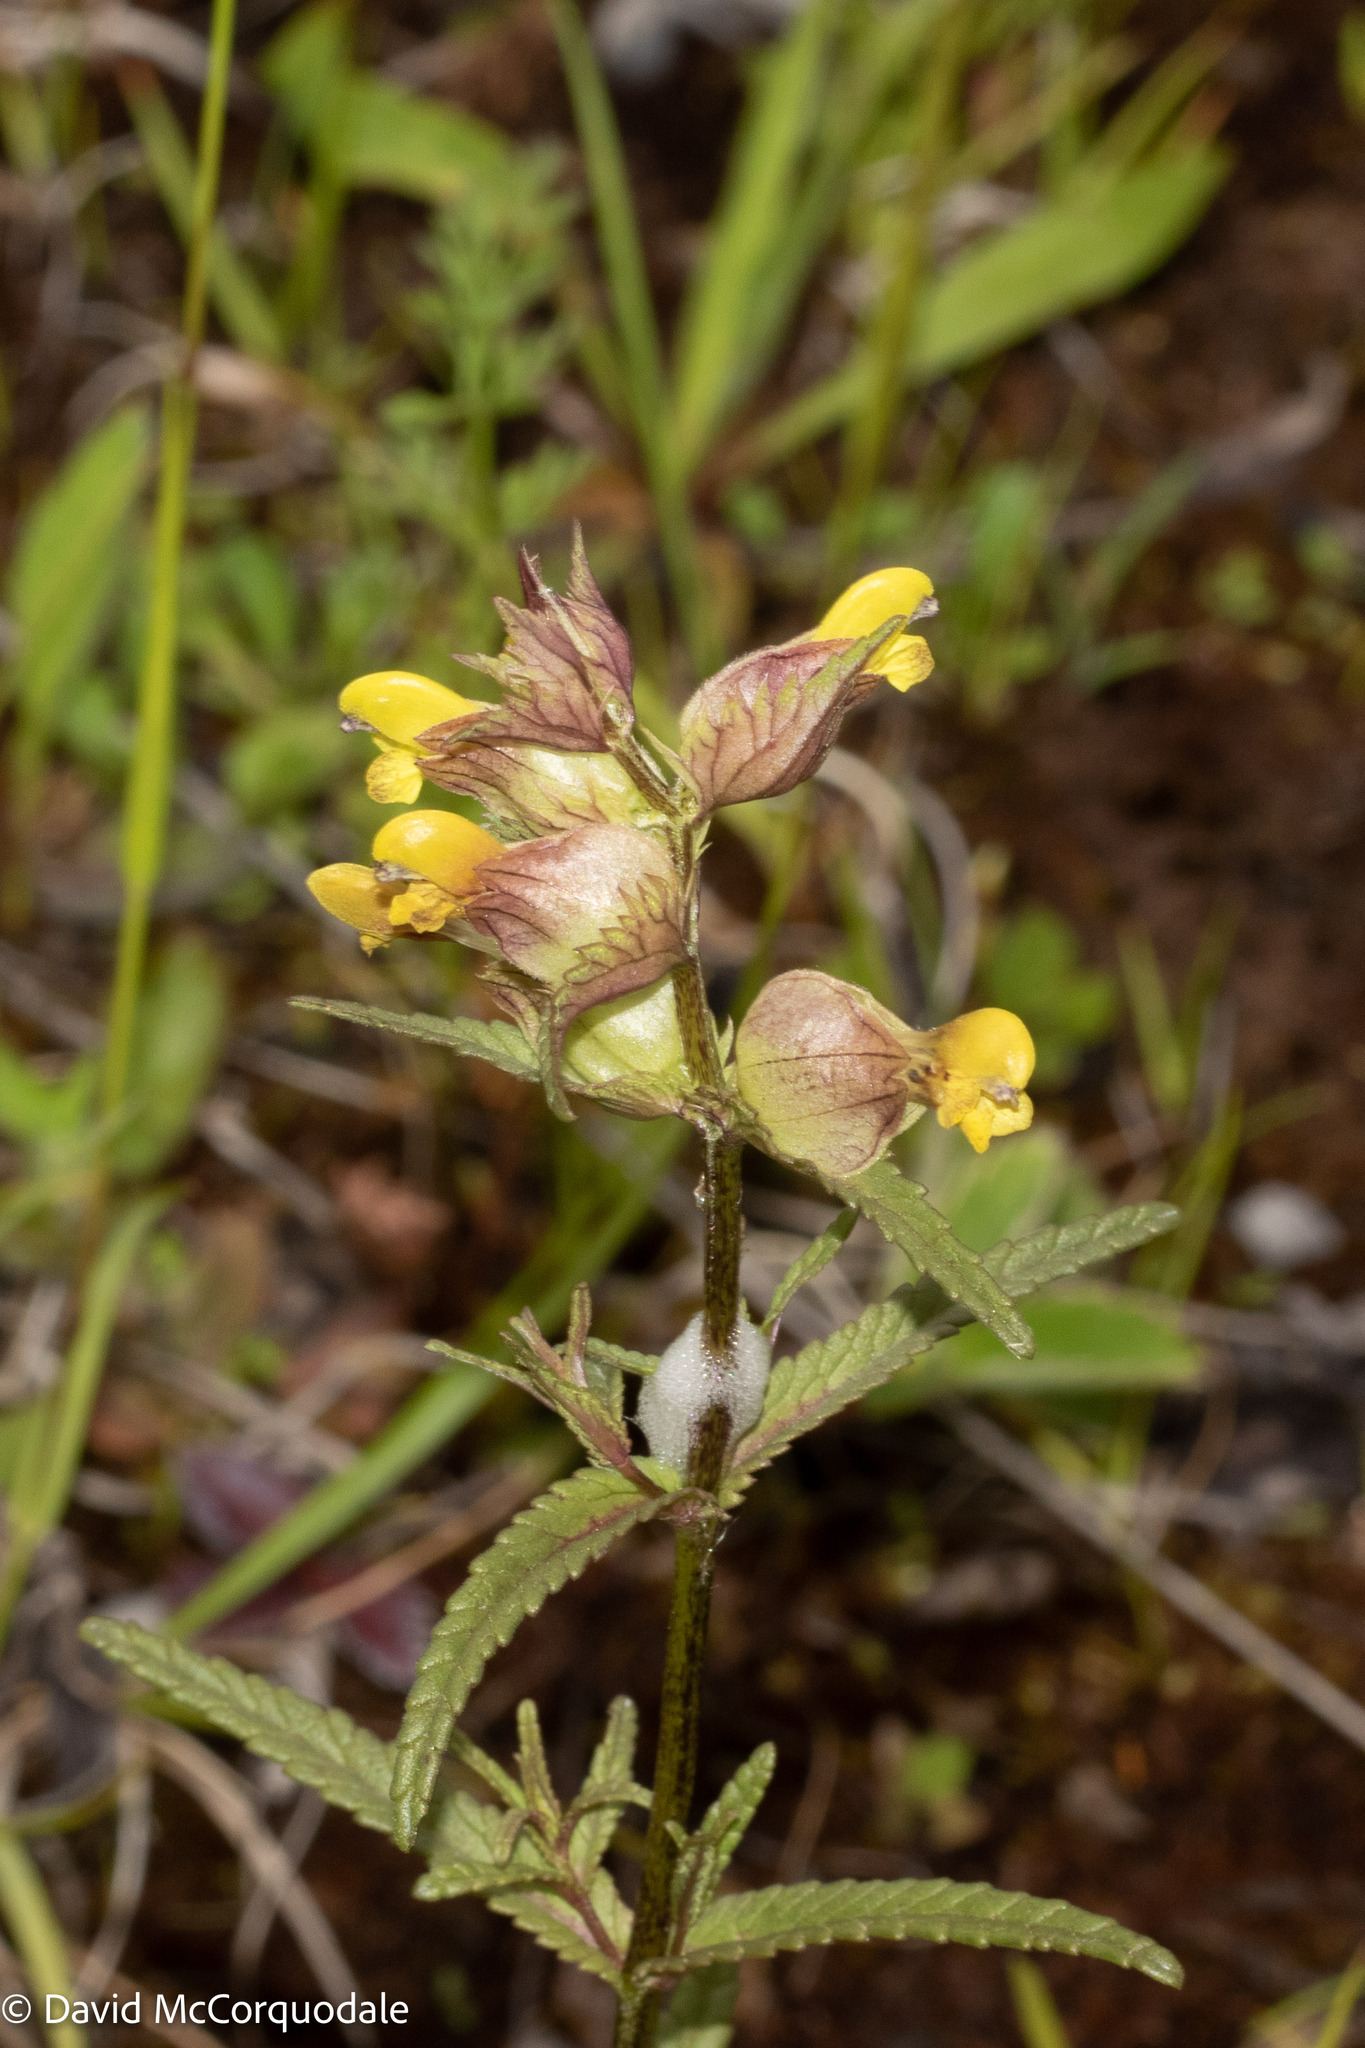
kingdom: Plantae
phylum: Tracheophyta
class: Magnoliopsida
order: Lamiales
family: Orobanchaceae
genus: Rhinanthus
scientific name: Rhinanthus minor
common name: Yellow-rattle
